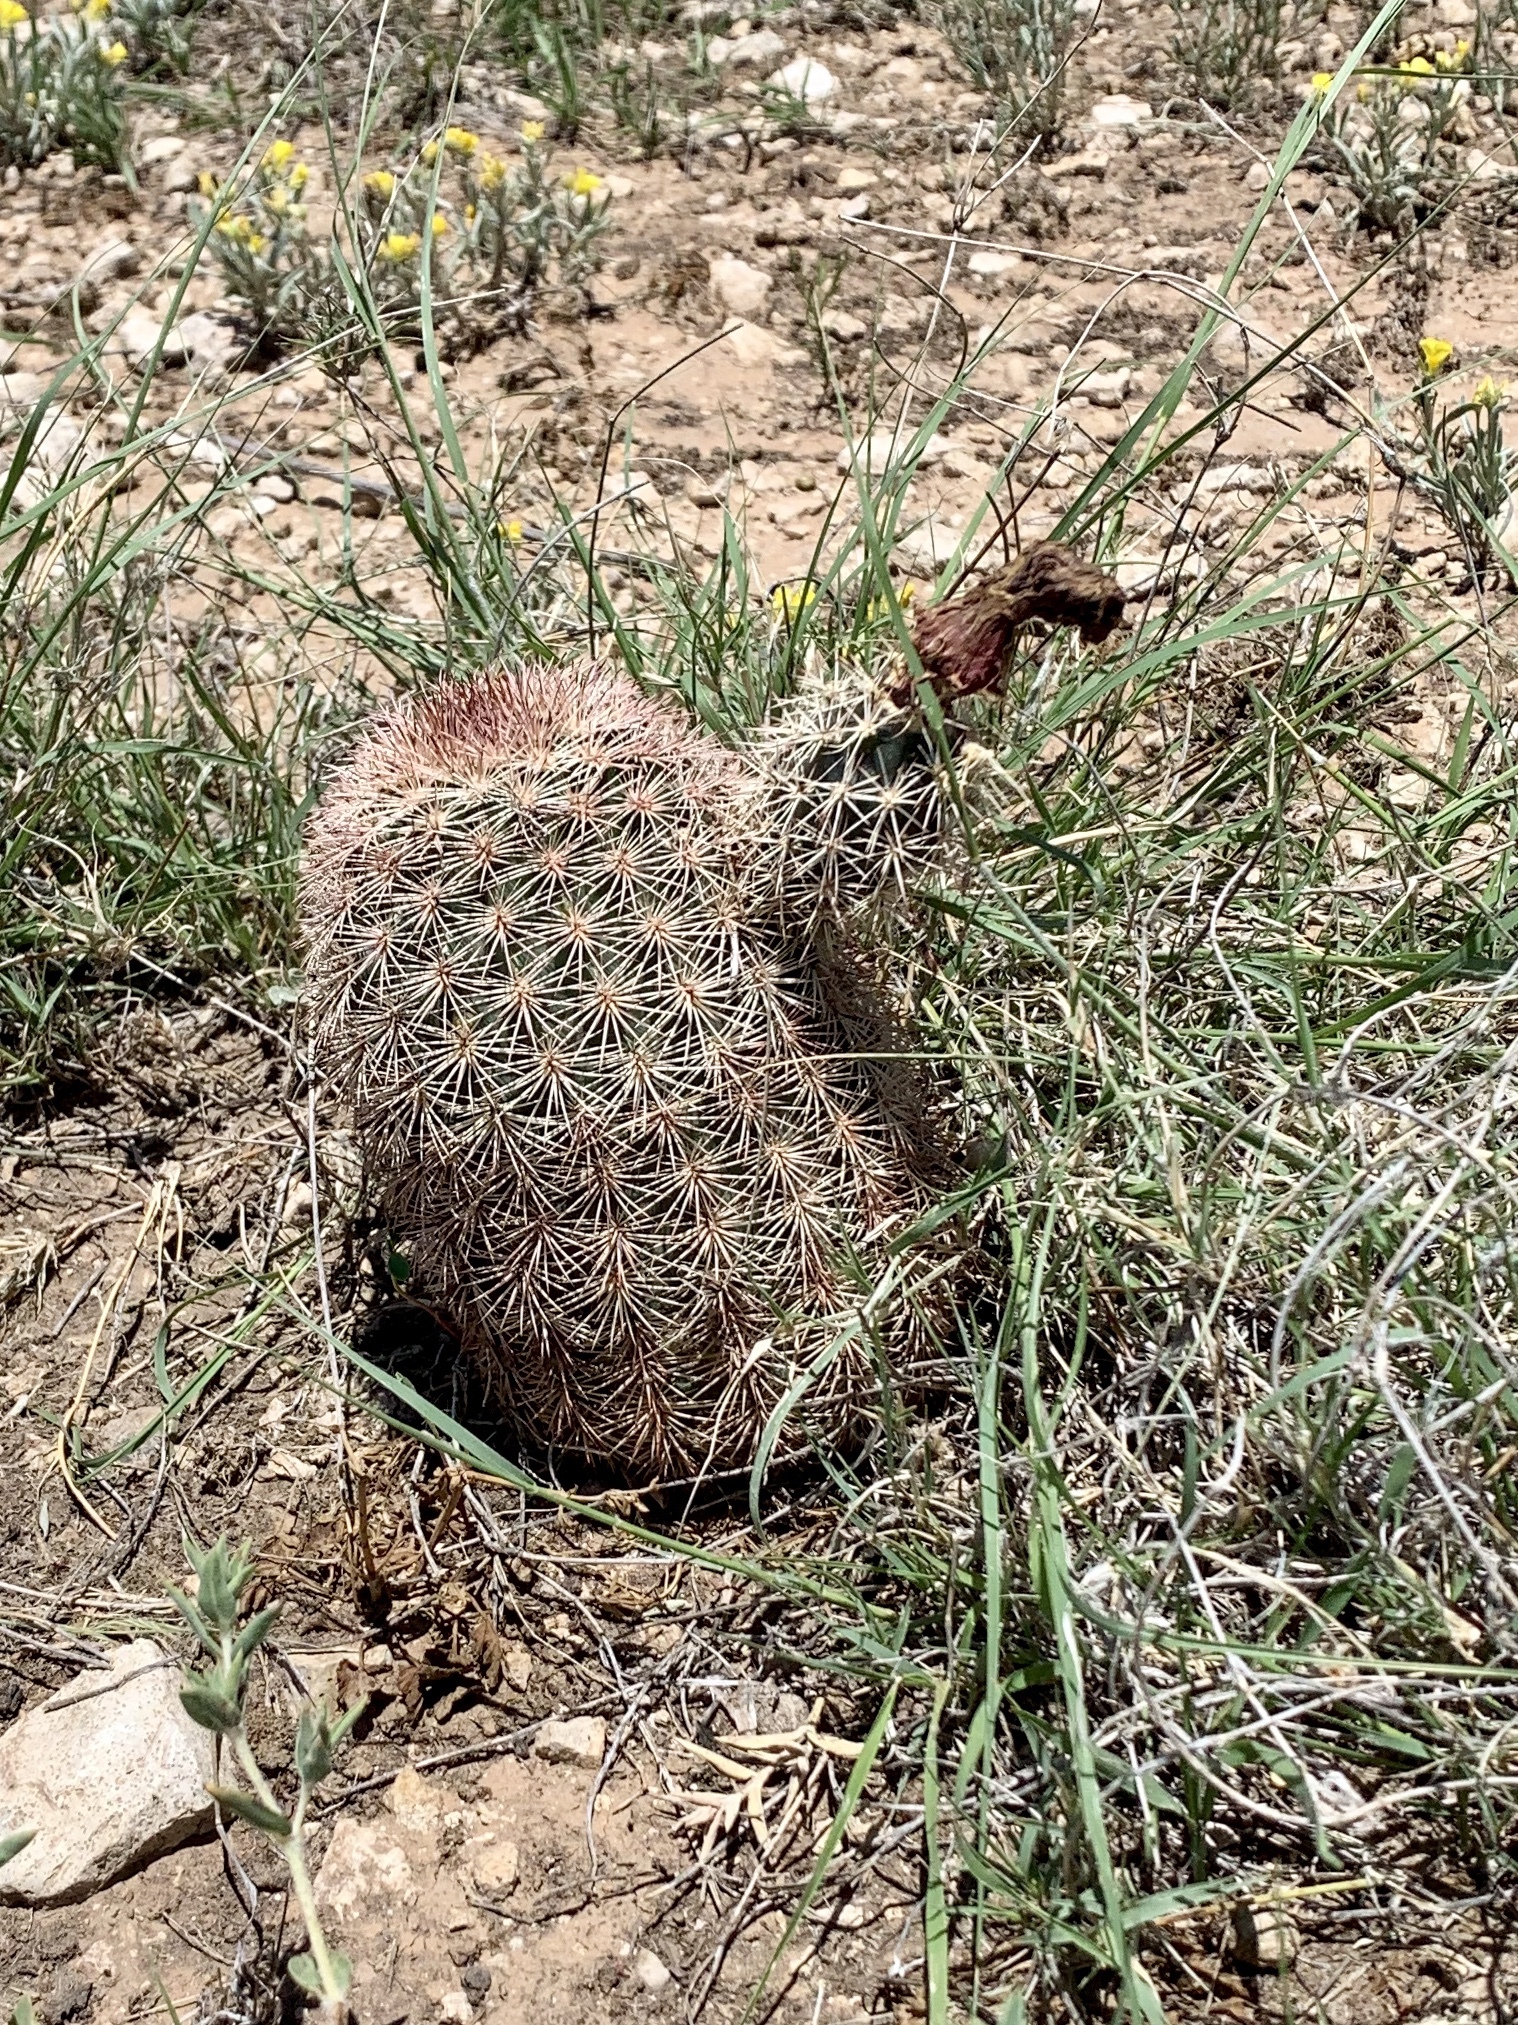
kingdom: Plantae
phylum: Tracheophyta
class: Magnoliopsida
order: Caryophyllales
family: Cactaceae
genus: Echinocereus
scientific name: Echinocereus dasyacanthus
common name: Spiny hedgehog cactus
